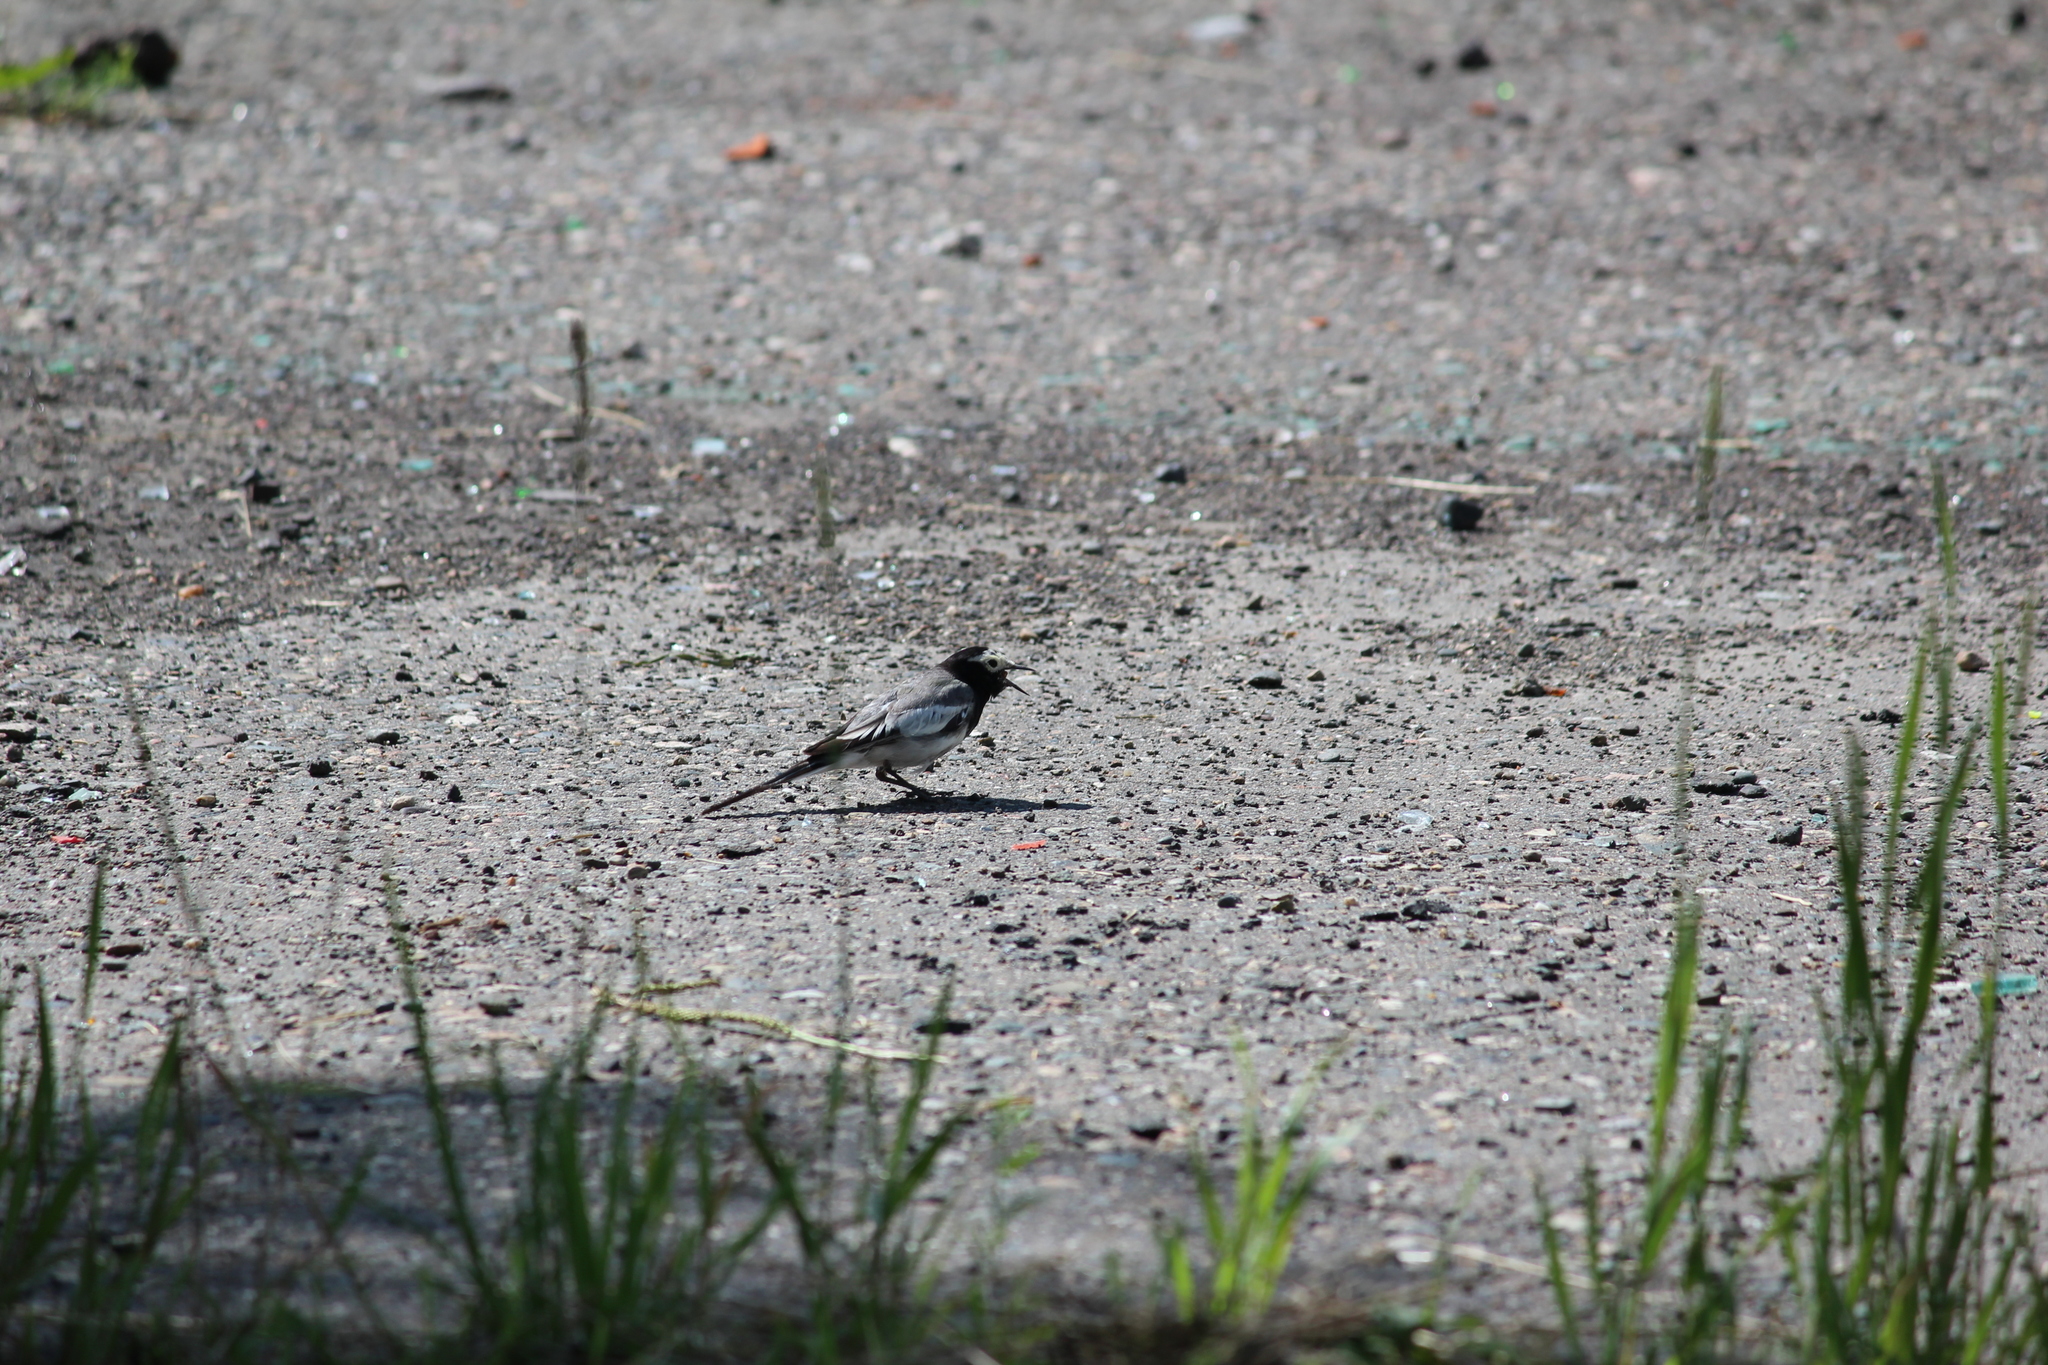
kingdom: Animalia
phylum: Chordata
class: Aves
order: Passeriformes
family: Motacillidae
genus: Motacilla
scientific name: Motacilla alba
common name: White wagtail
